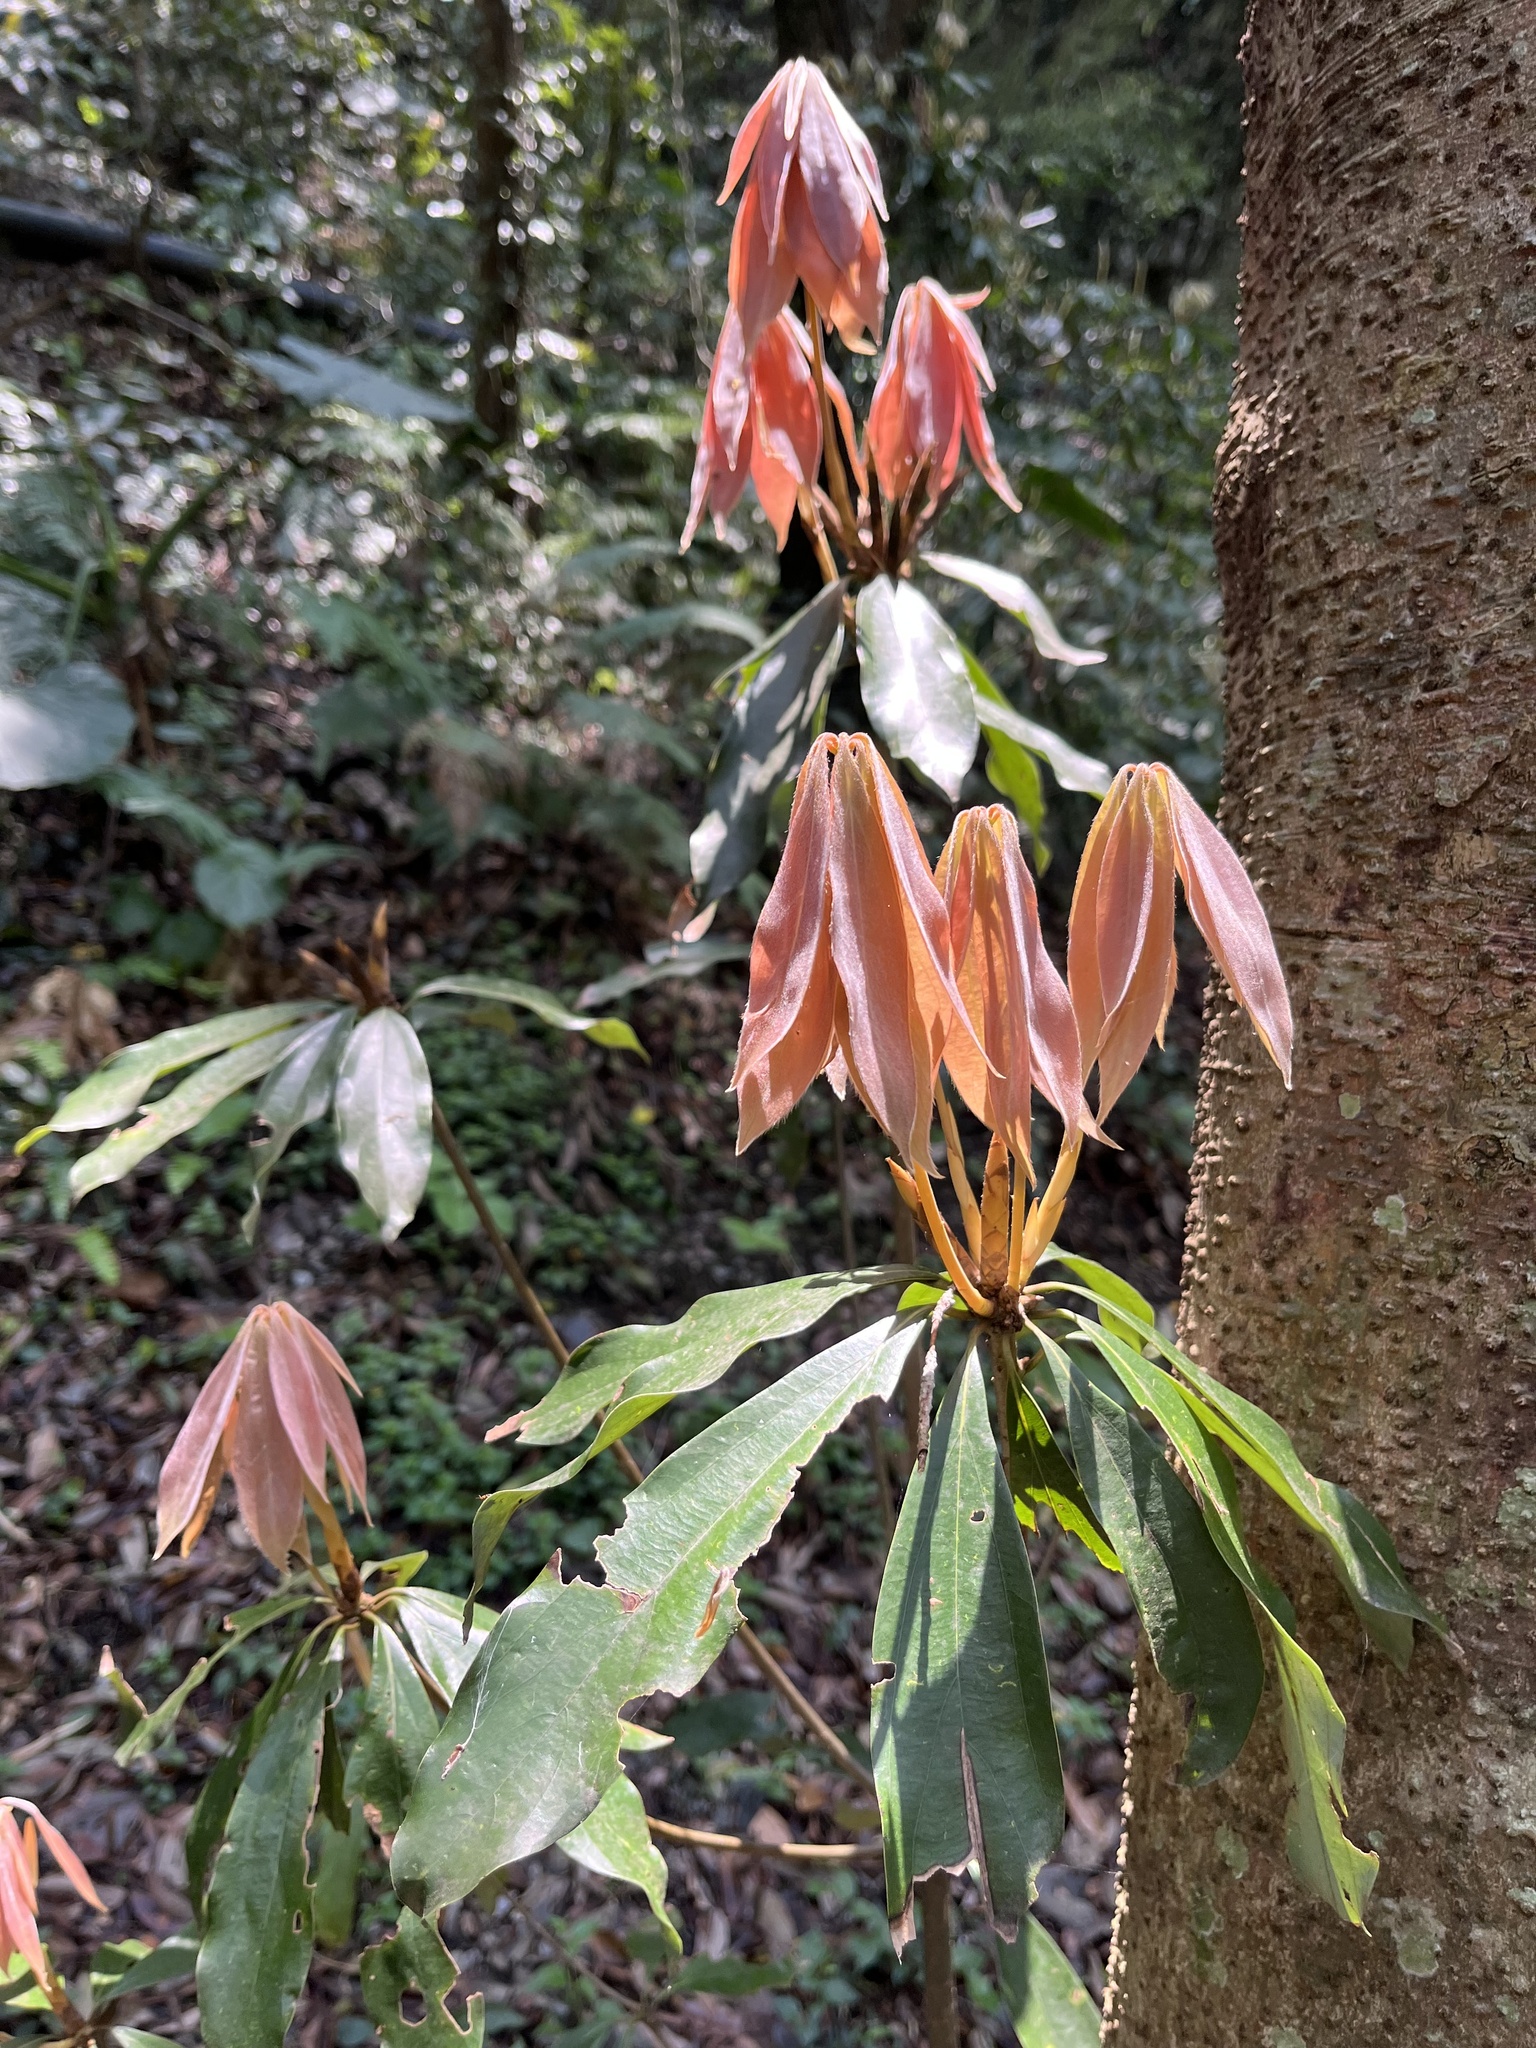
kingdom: Plantae
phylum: Tracheophyta
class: Magnoliopsida
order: Laurales
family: Lauraceae
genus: Neolitsea
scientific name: Neolitsea konishii
